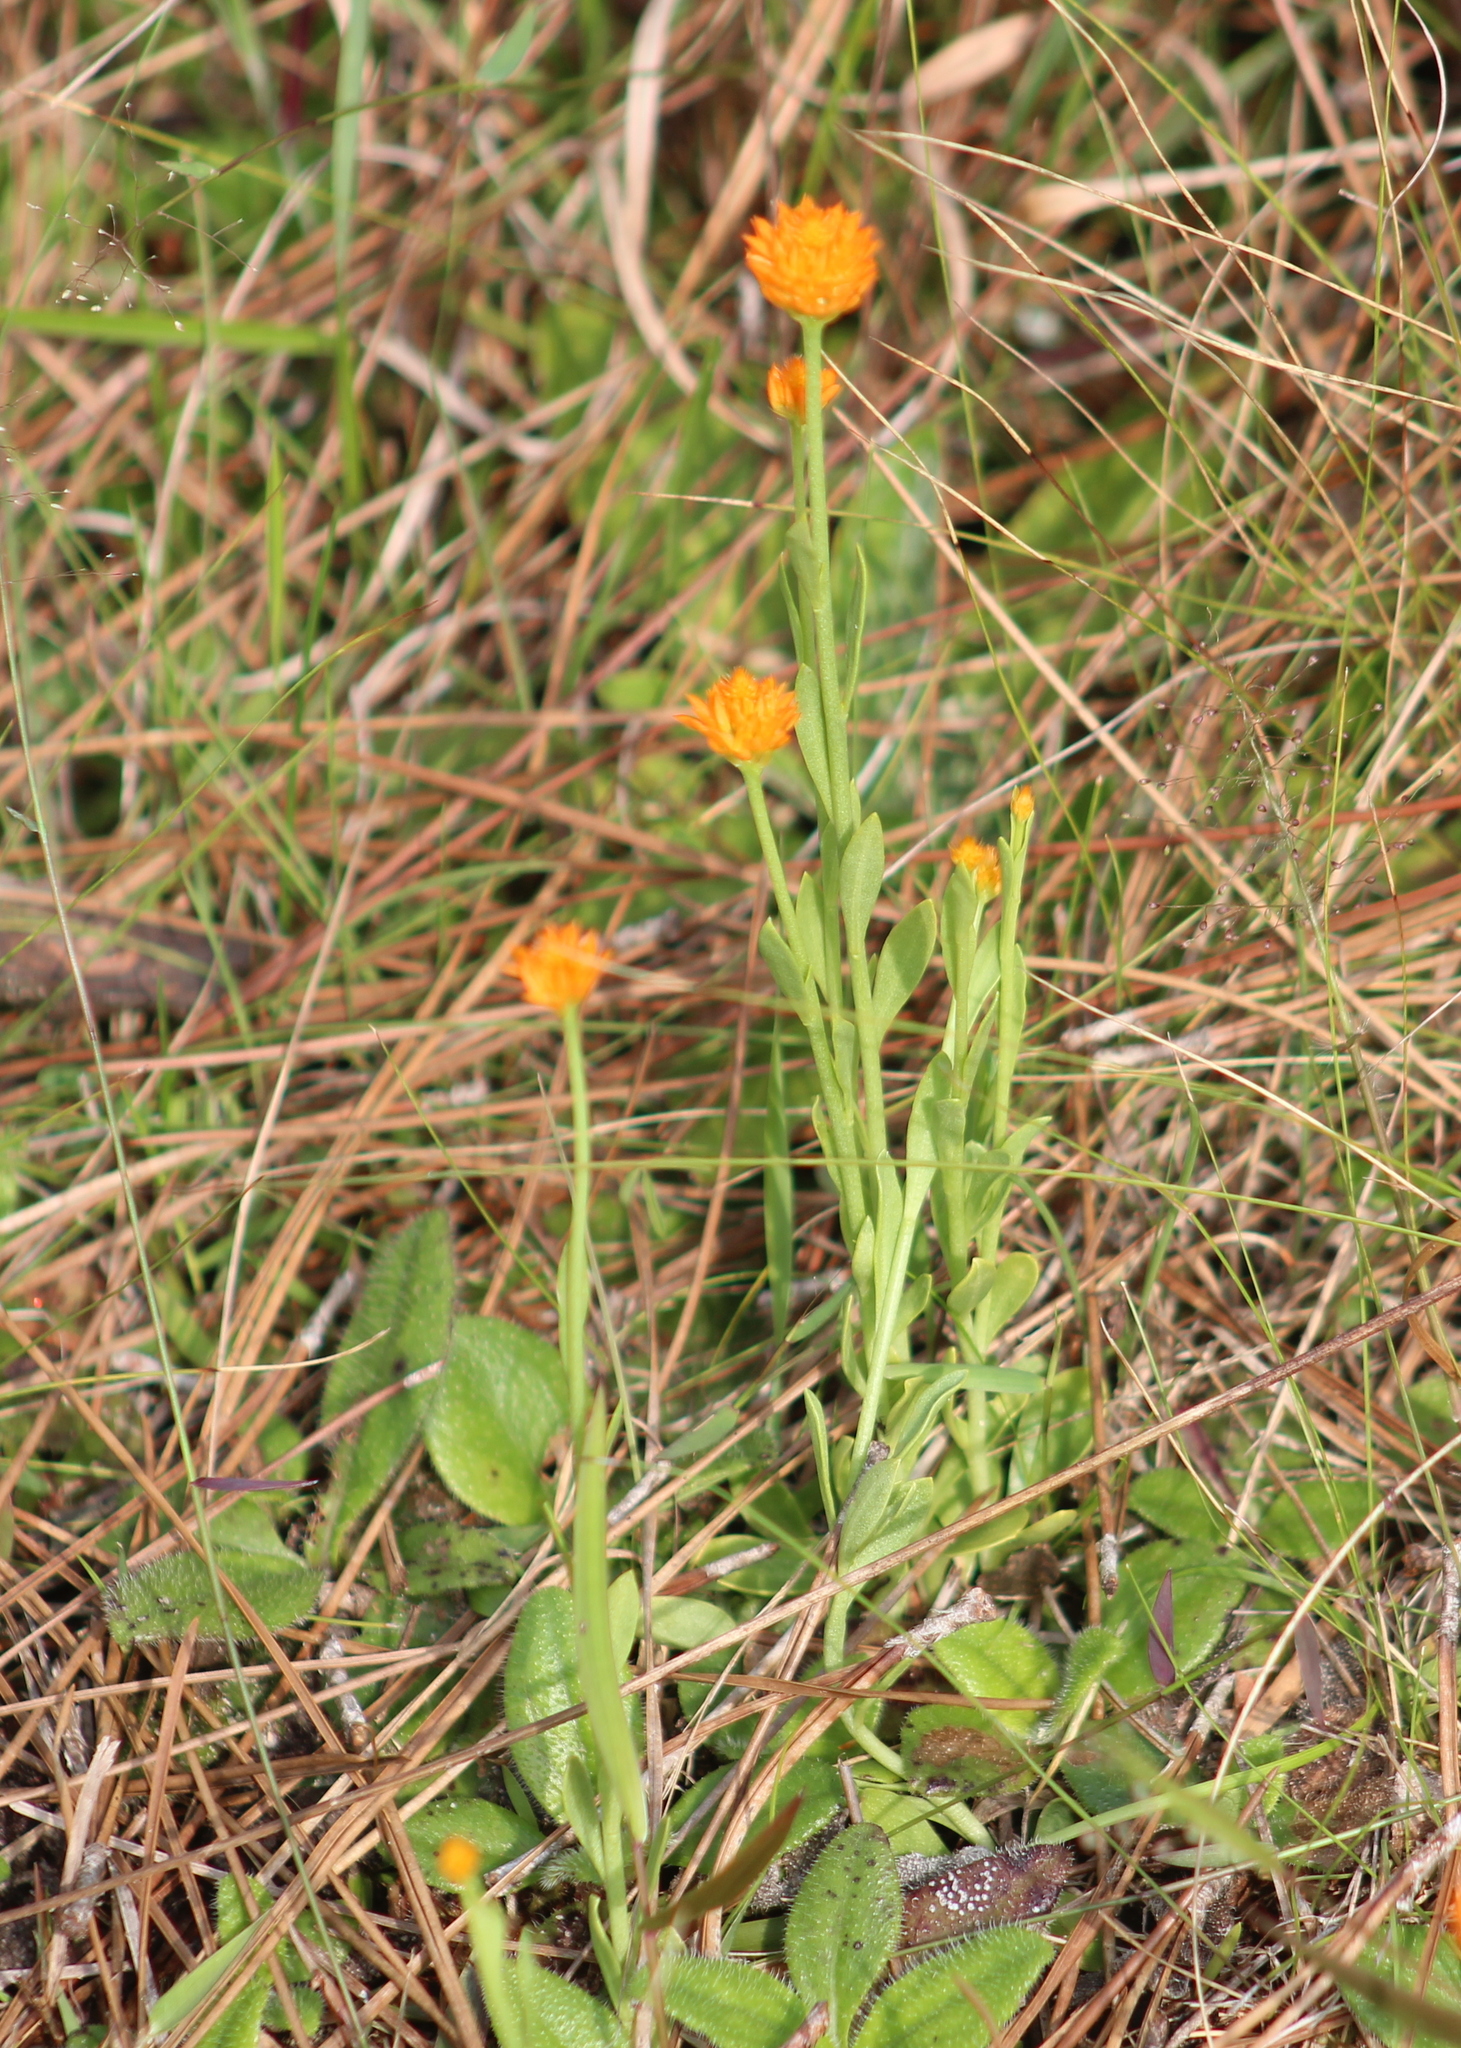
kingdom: Plantae
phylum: Tracheophyta
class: Magnoliopsida
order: Fabales
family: Polygalaceae
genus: Polygala
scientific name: Polygala lutea
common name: Orange milkwort
